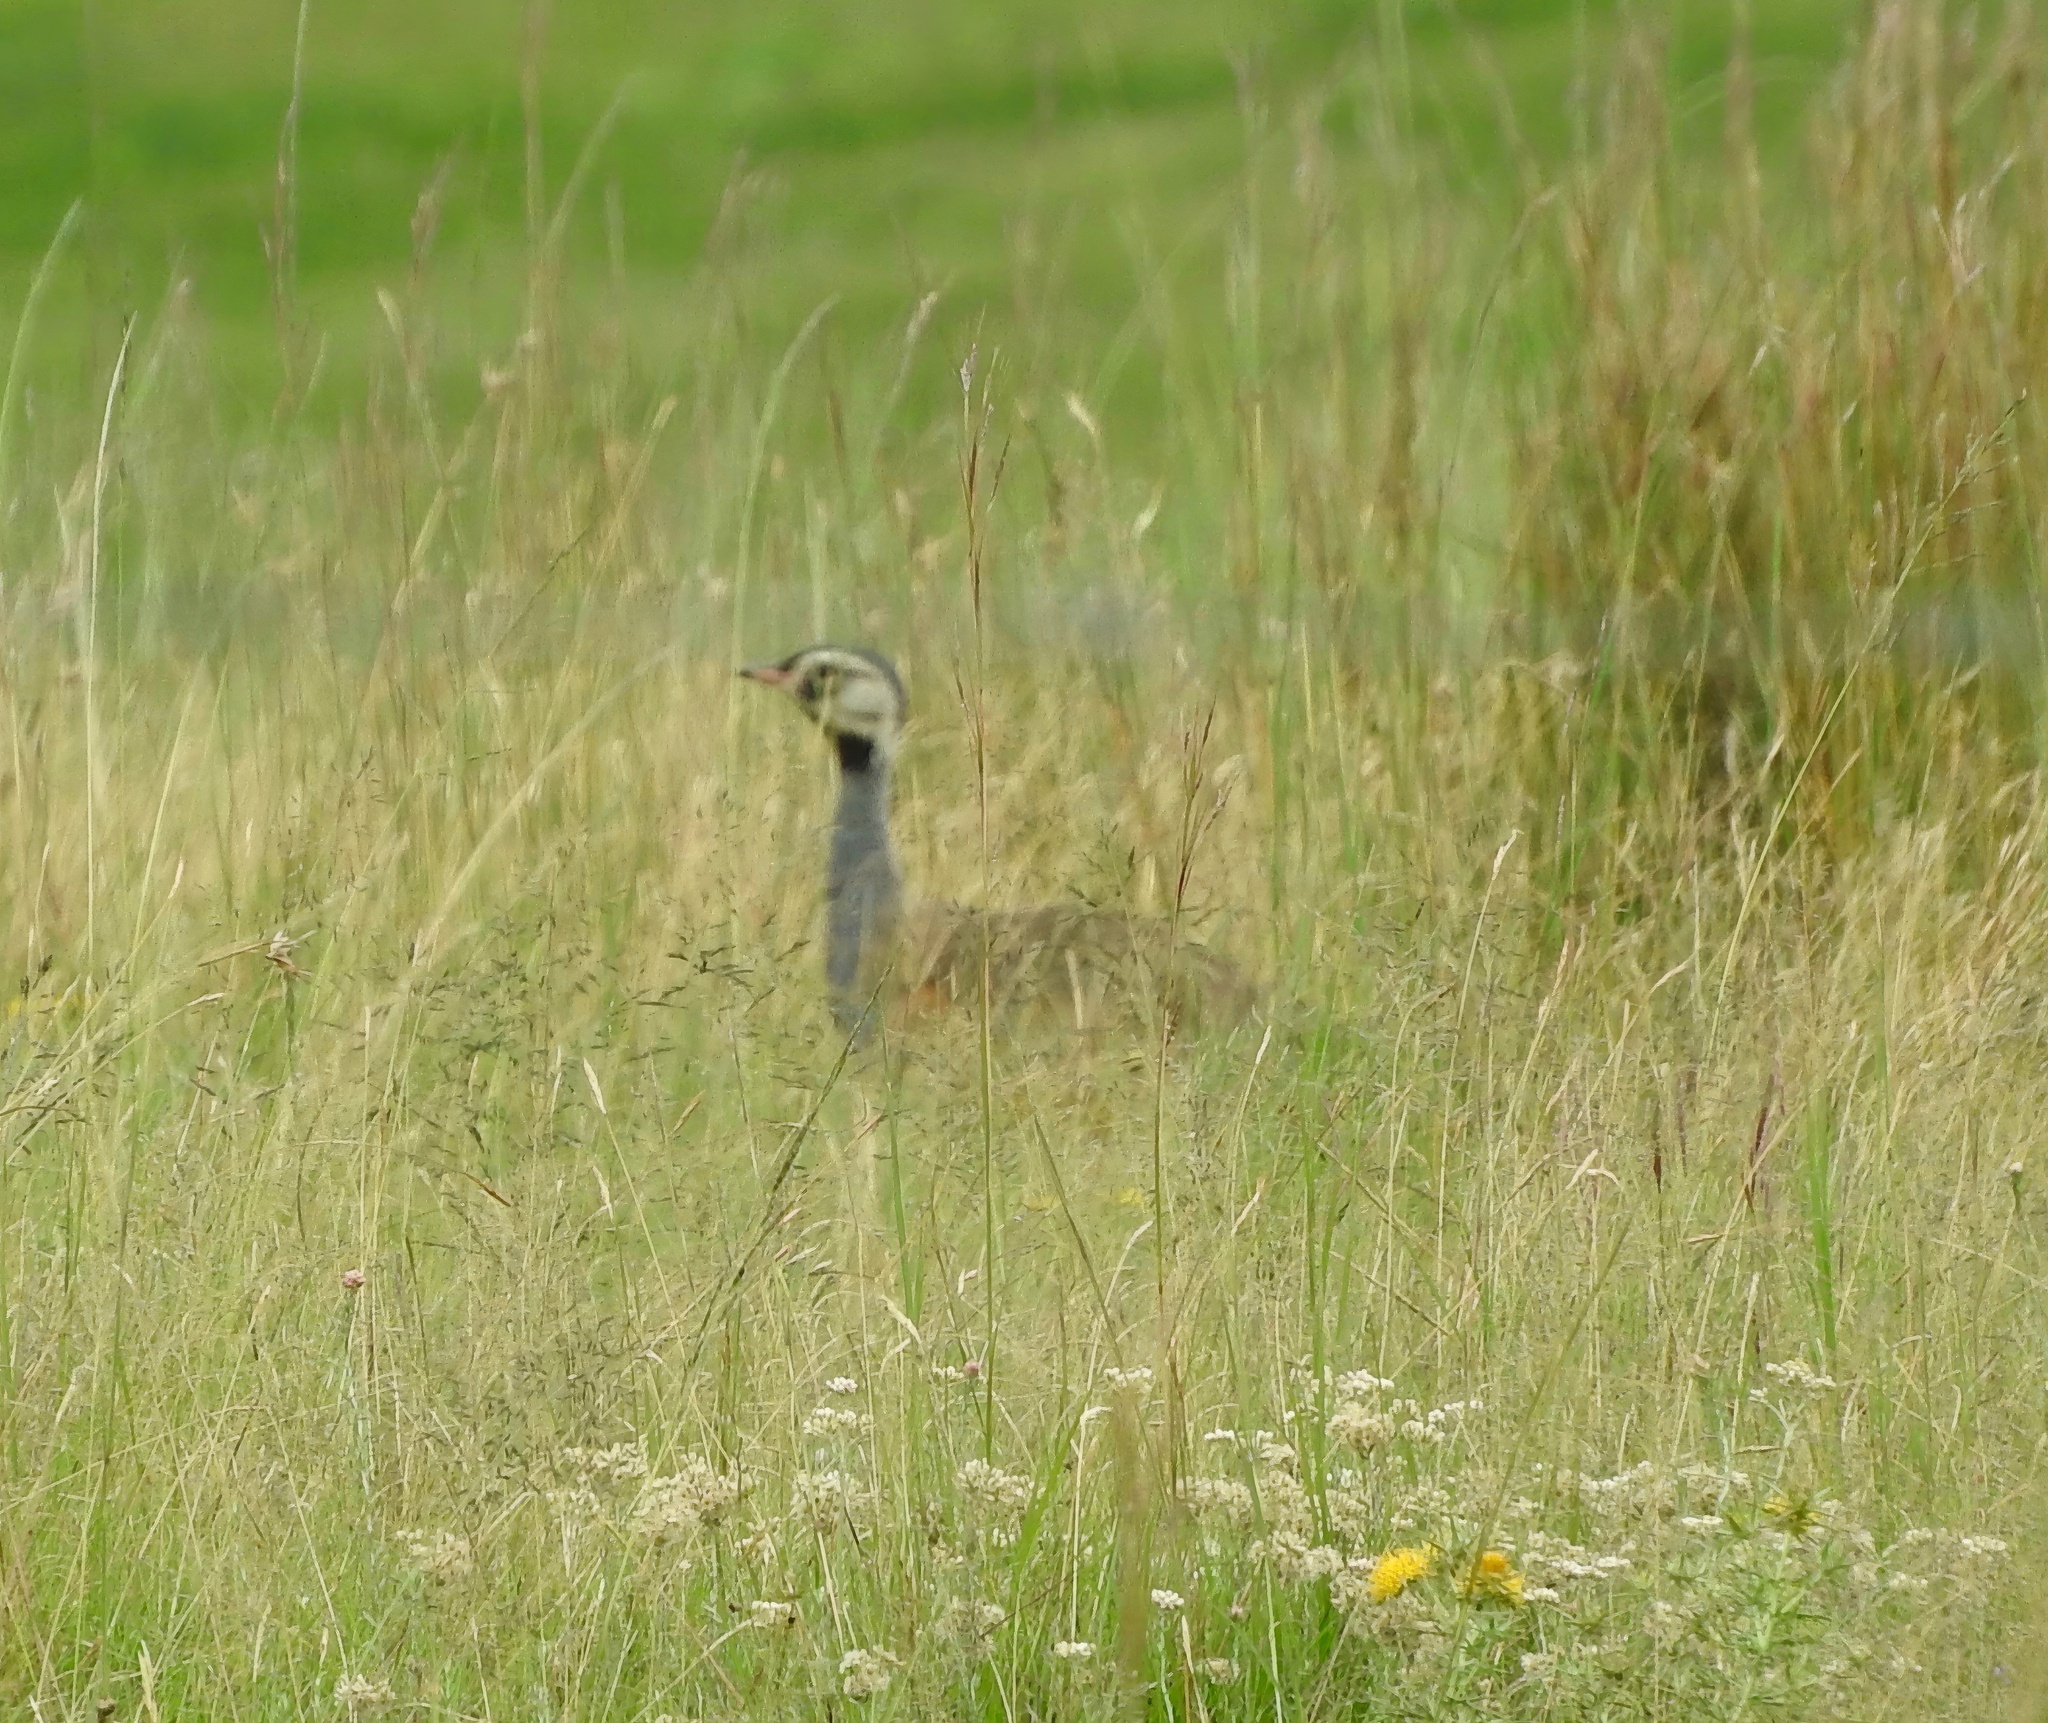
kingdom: Animalia
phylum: Chordata
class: Aves
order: Otidiformes
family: Otididae
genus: Eupodotis
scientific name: Eupodotis caerulescens
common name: Blue korhaan
